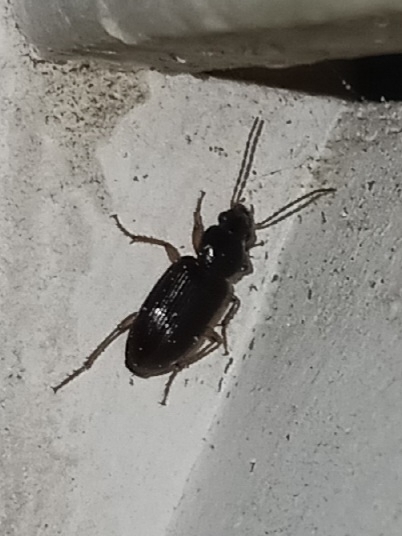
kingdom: Animalia
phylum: Arthropoda
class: Insecta
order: Coleoptera
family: Carabidae
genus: Stenolophus
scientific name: Stenolophus ochropezus
